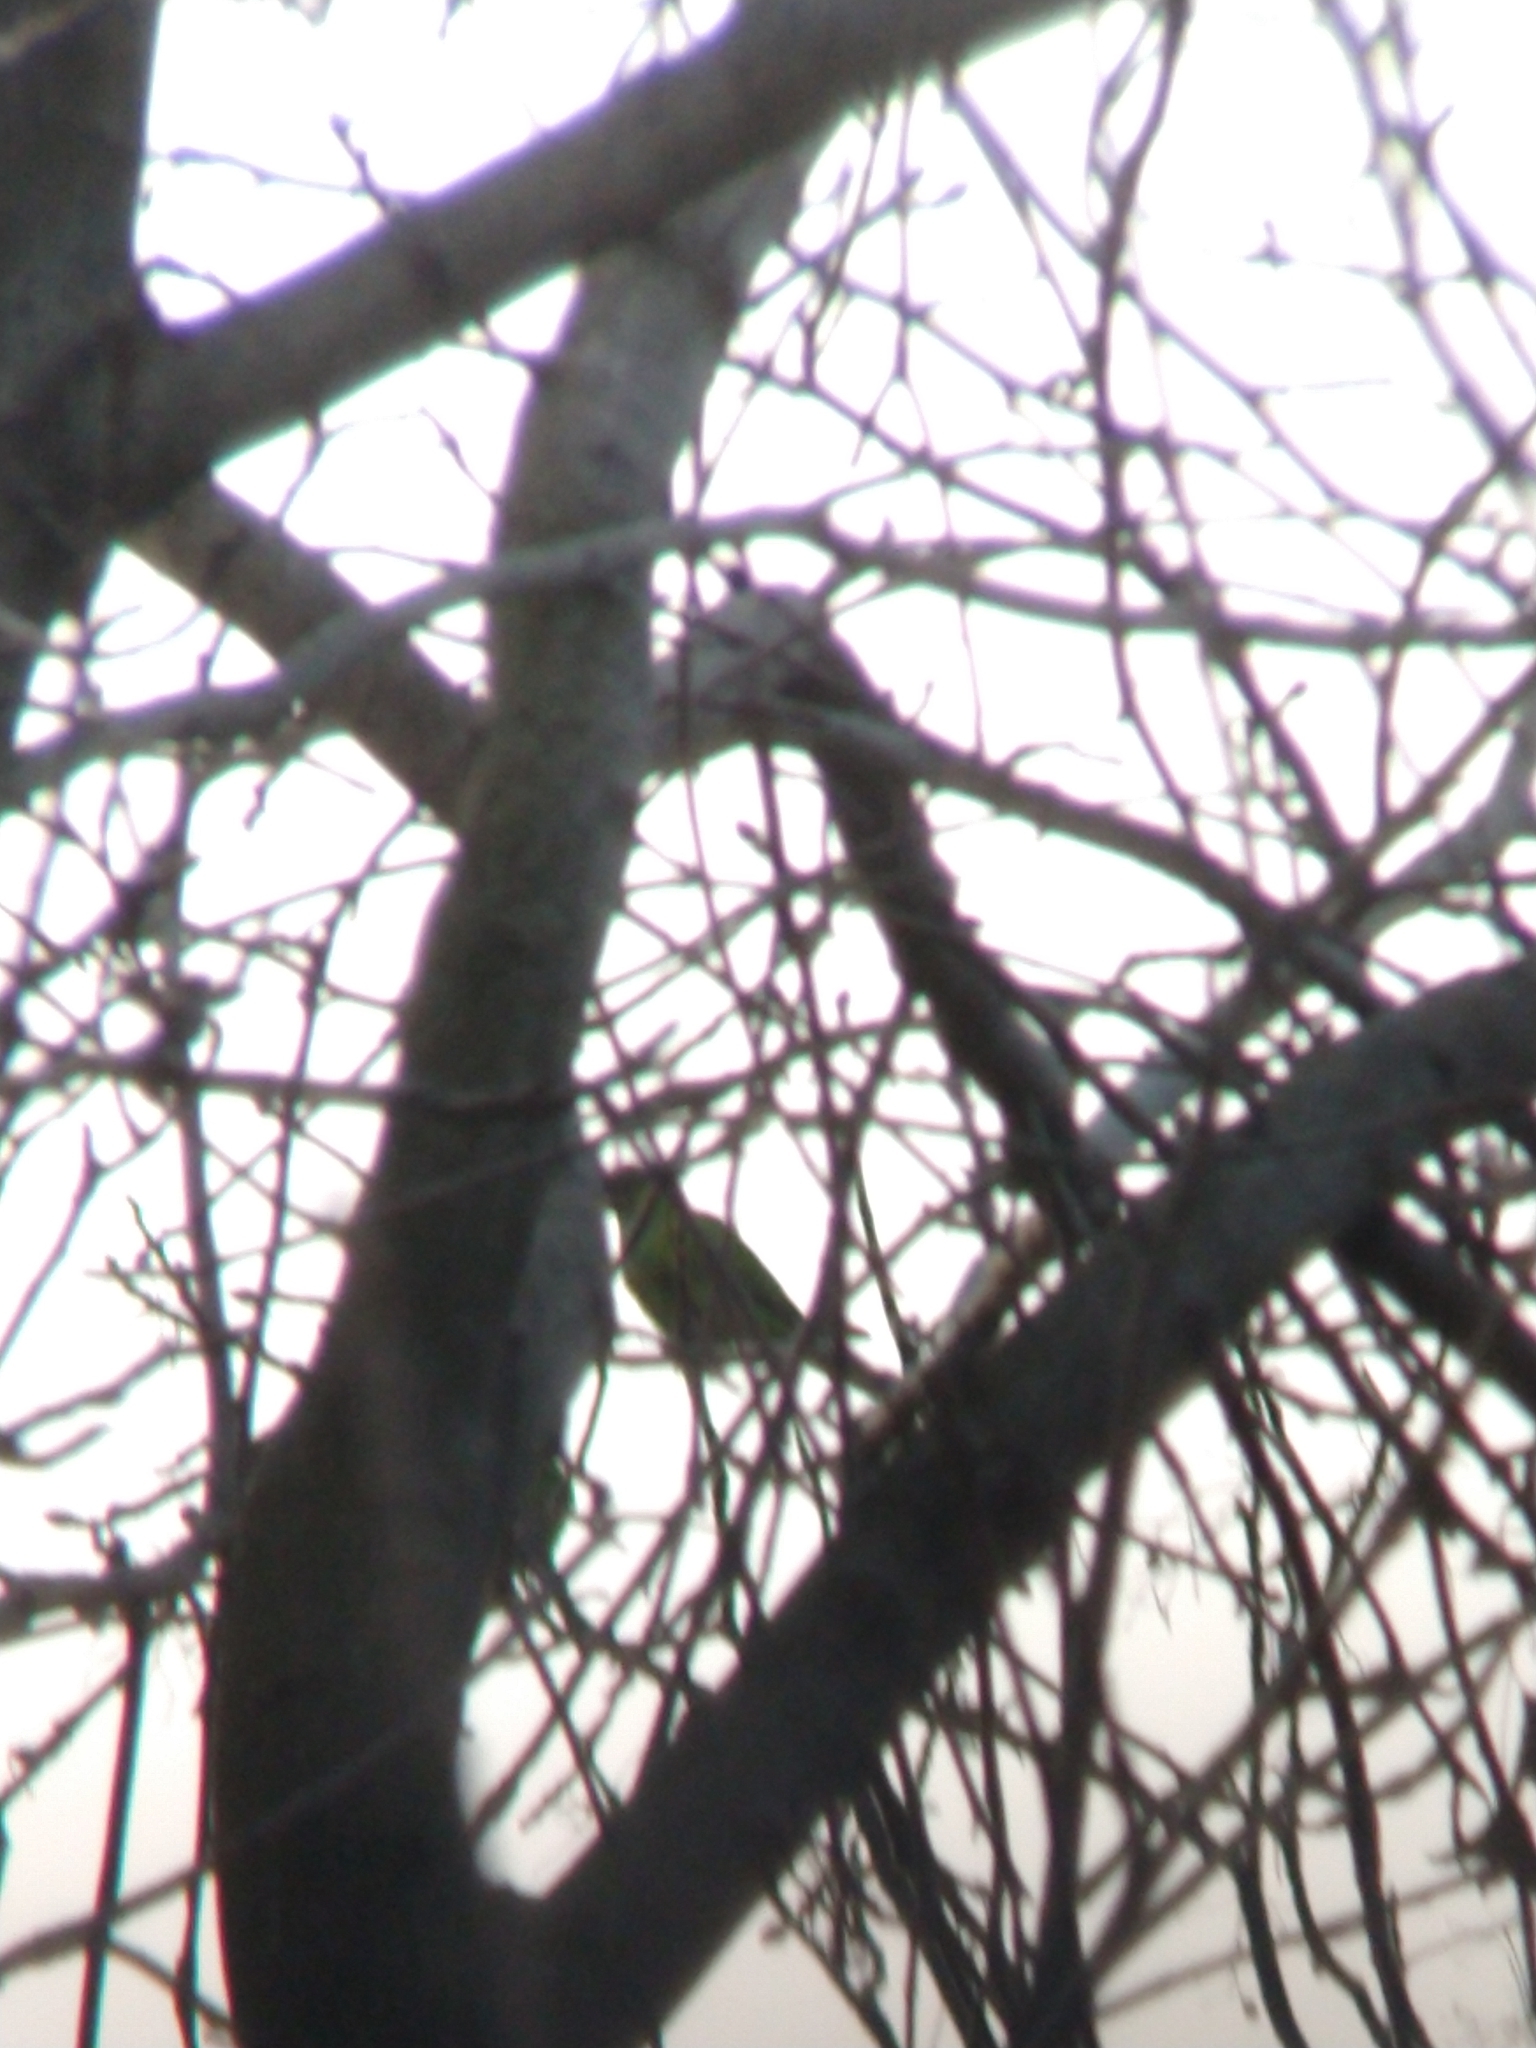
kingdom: Animalia
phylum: Chordata
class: Aves
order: Psittaciformes
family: Psittacidae
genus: Nandayus
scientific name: Nandayus nenday
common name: Nanday parakeet
